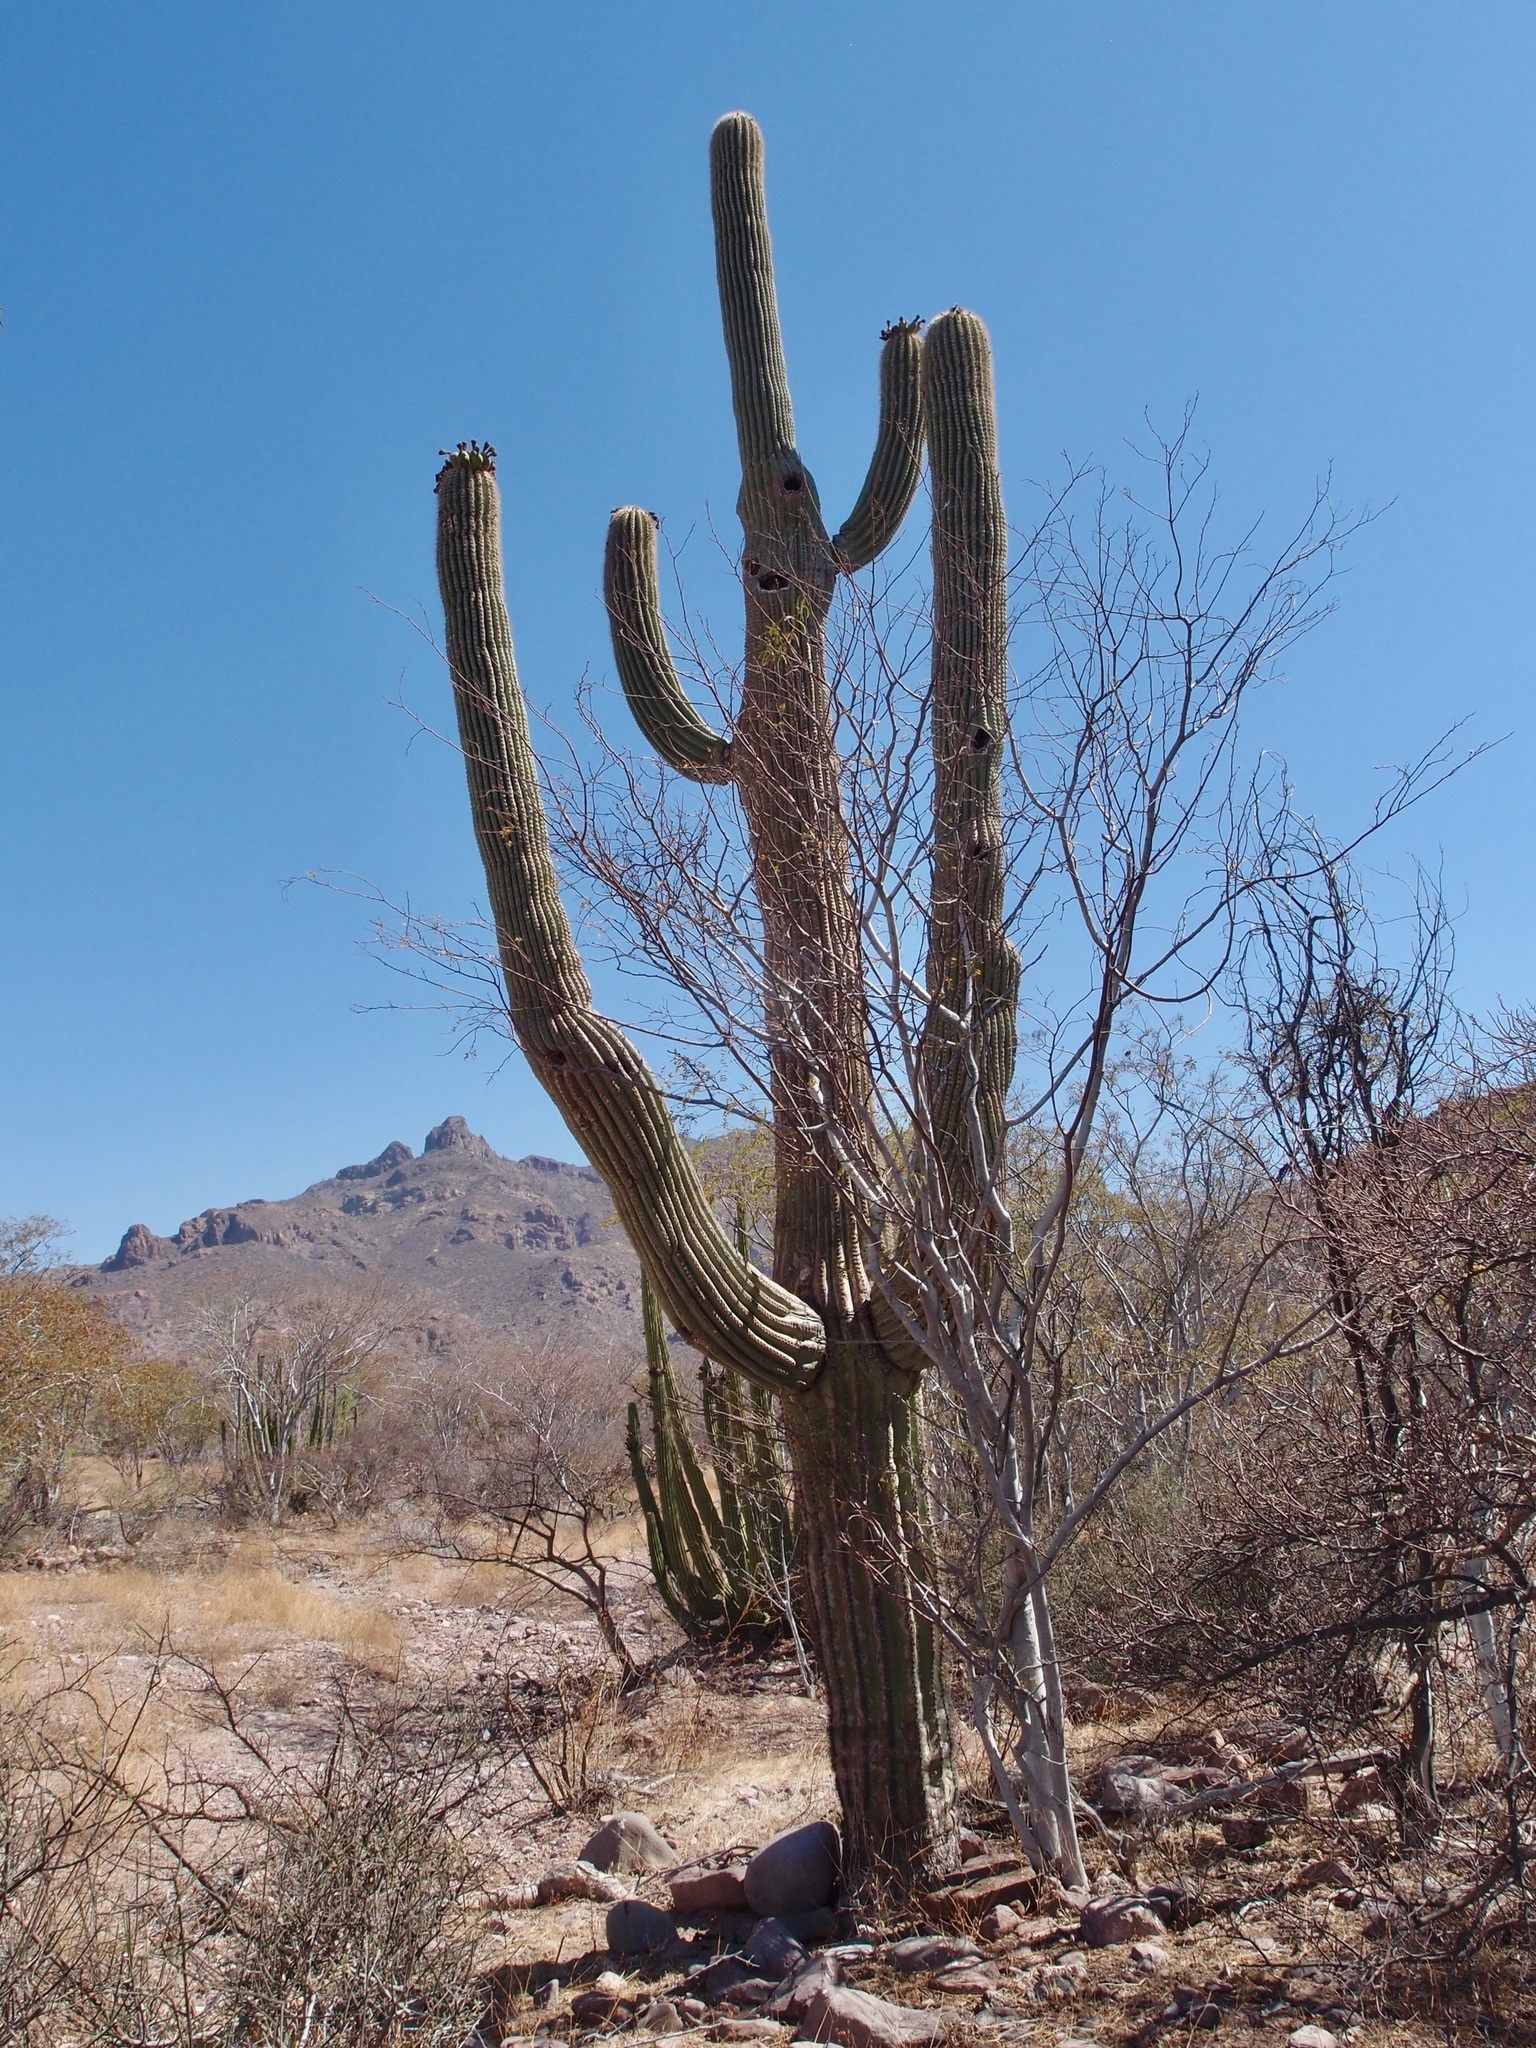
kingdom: Plantae
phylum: Tracheophyta
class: Magnoliopsida
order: Caryophyllales
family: Cactaceae
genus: Carnegiea
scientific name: Carnegiea gigantea
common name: Saguaro
